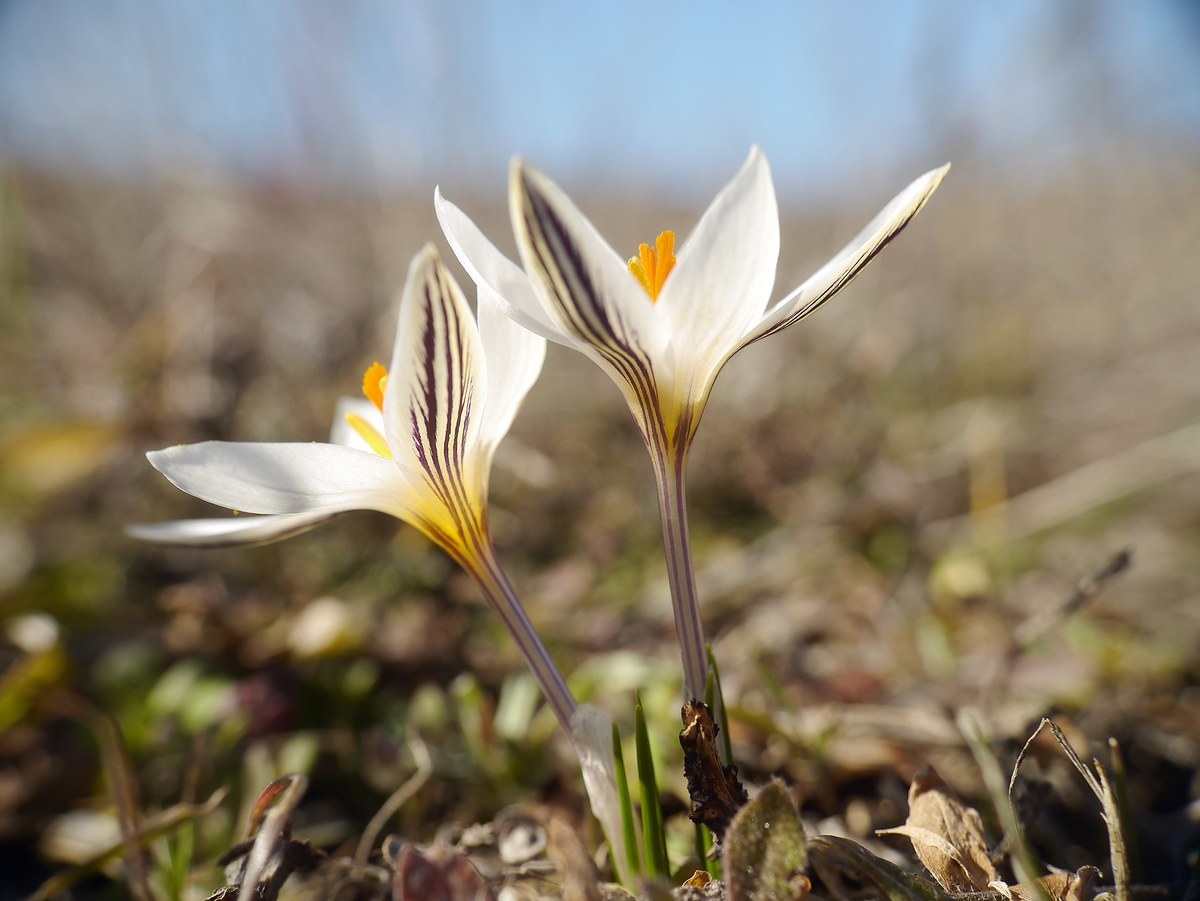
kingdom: Plantae
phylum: Tracheophyta
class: Liliopsida
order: Asparagales
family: Iridaceae
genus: Crocus
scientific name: Crocus reticulatus
